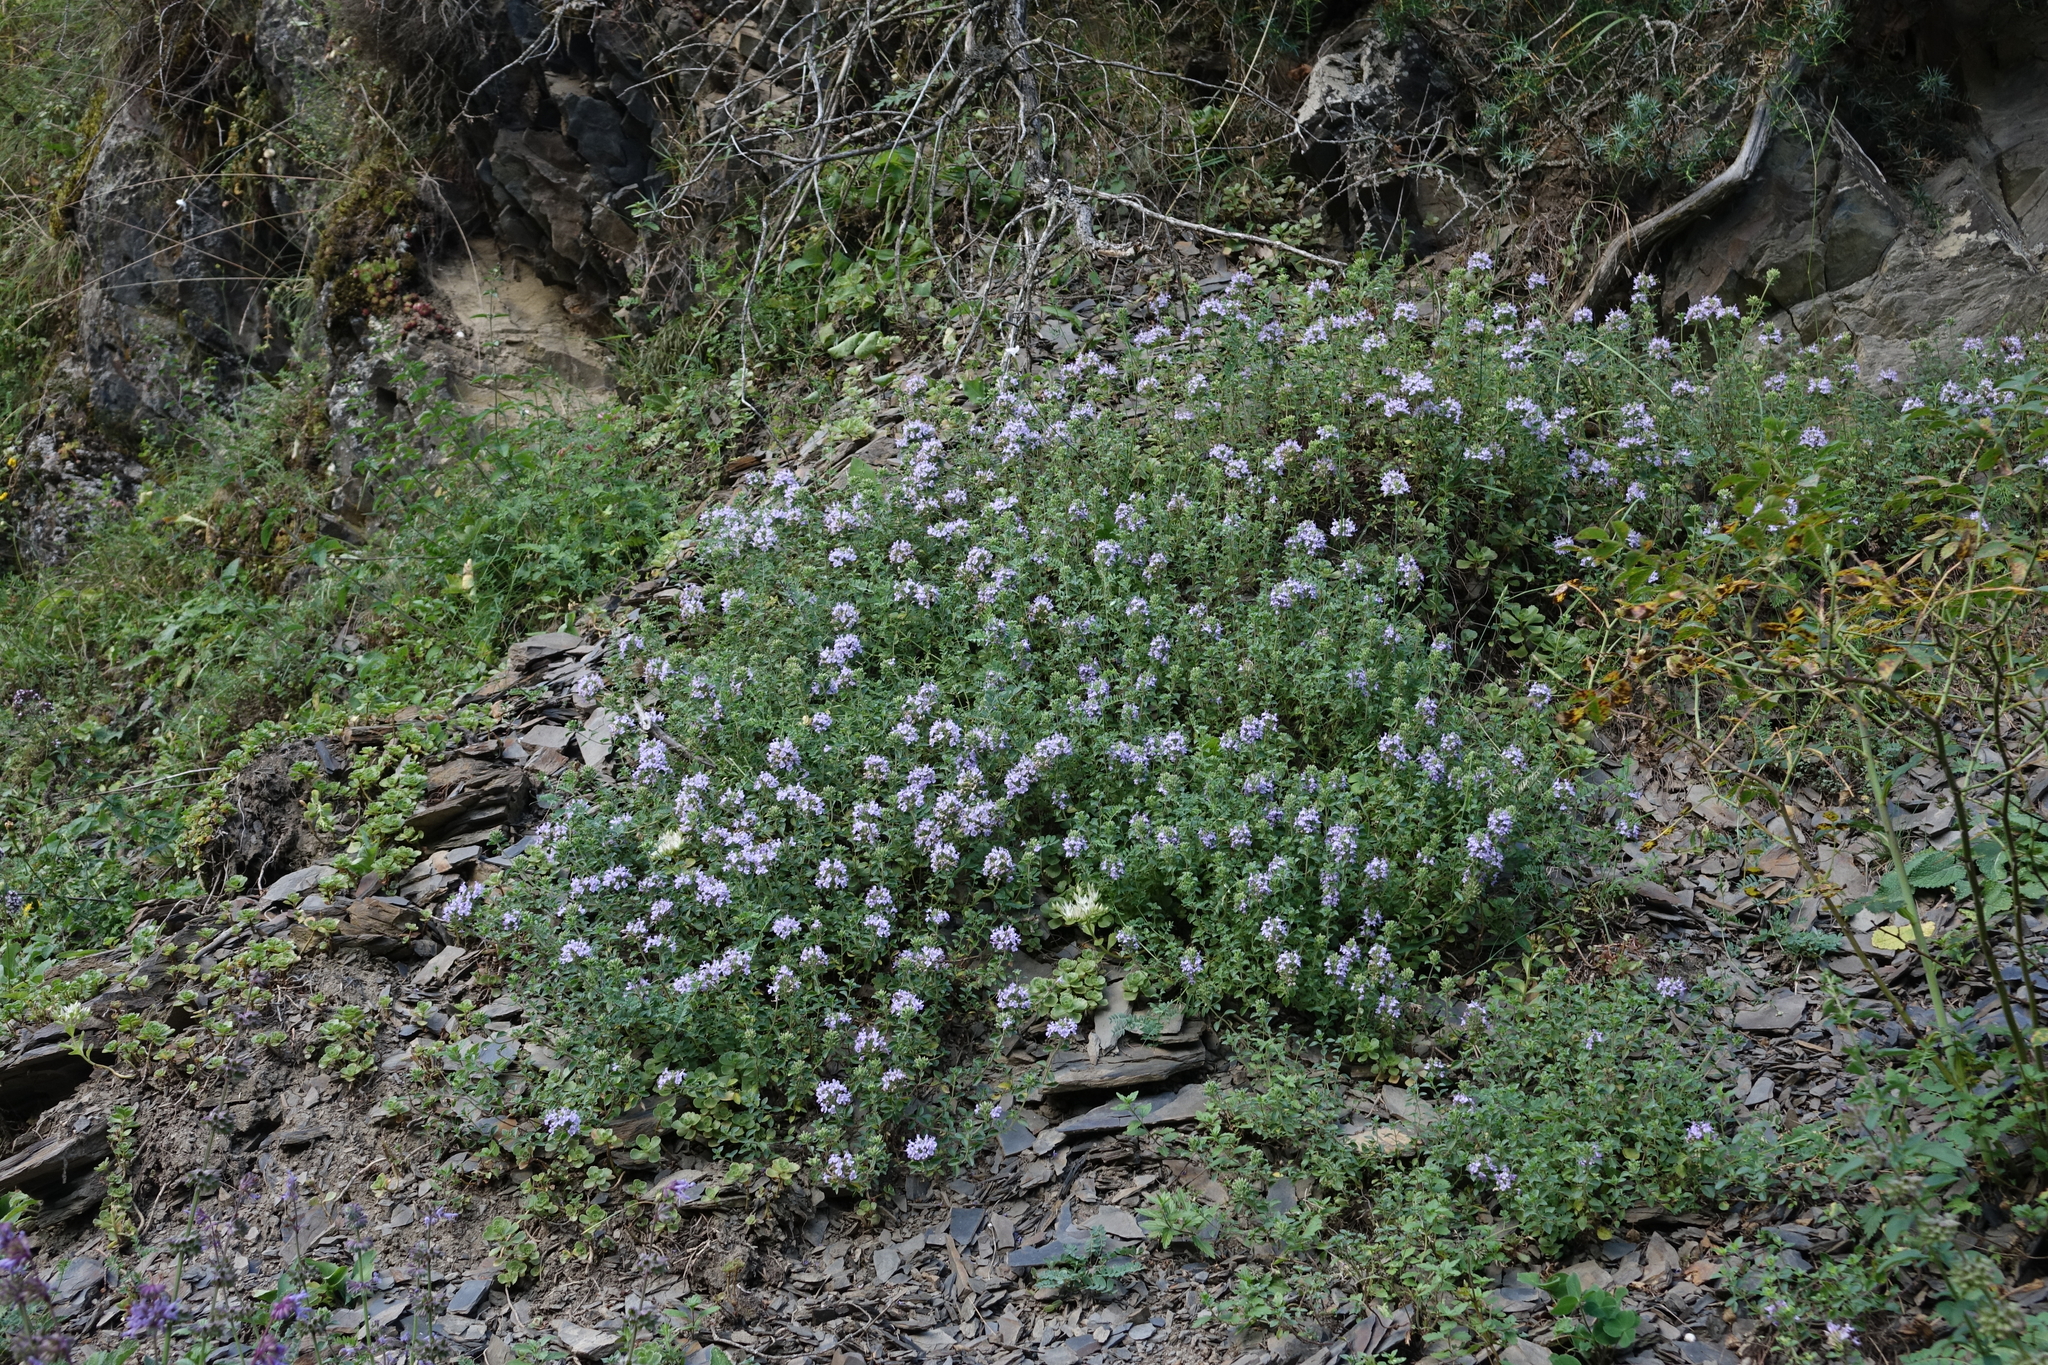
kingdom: Plantae
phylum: Tracheophyta
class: Magnoliopsida
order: Lamiales
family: Lamiaceae
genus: Ziziphora
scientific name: Ziziphora clinopodioides
